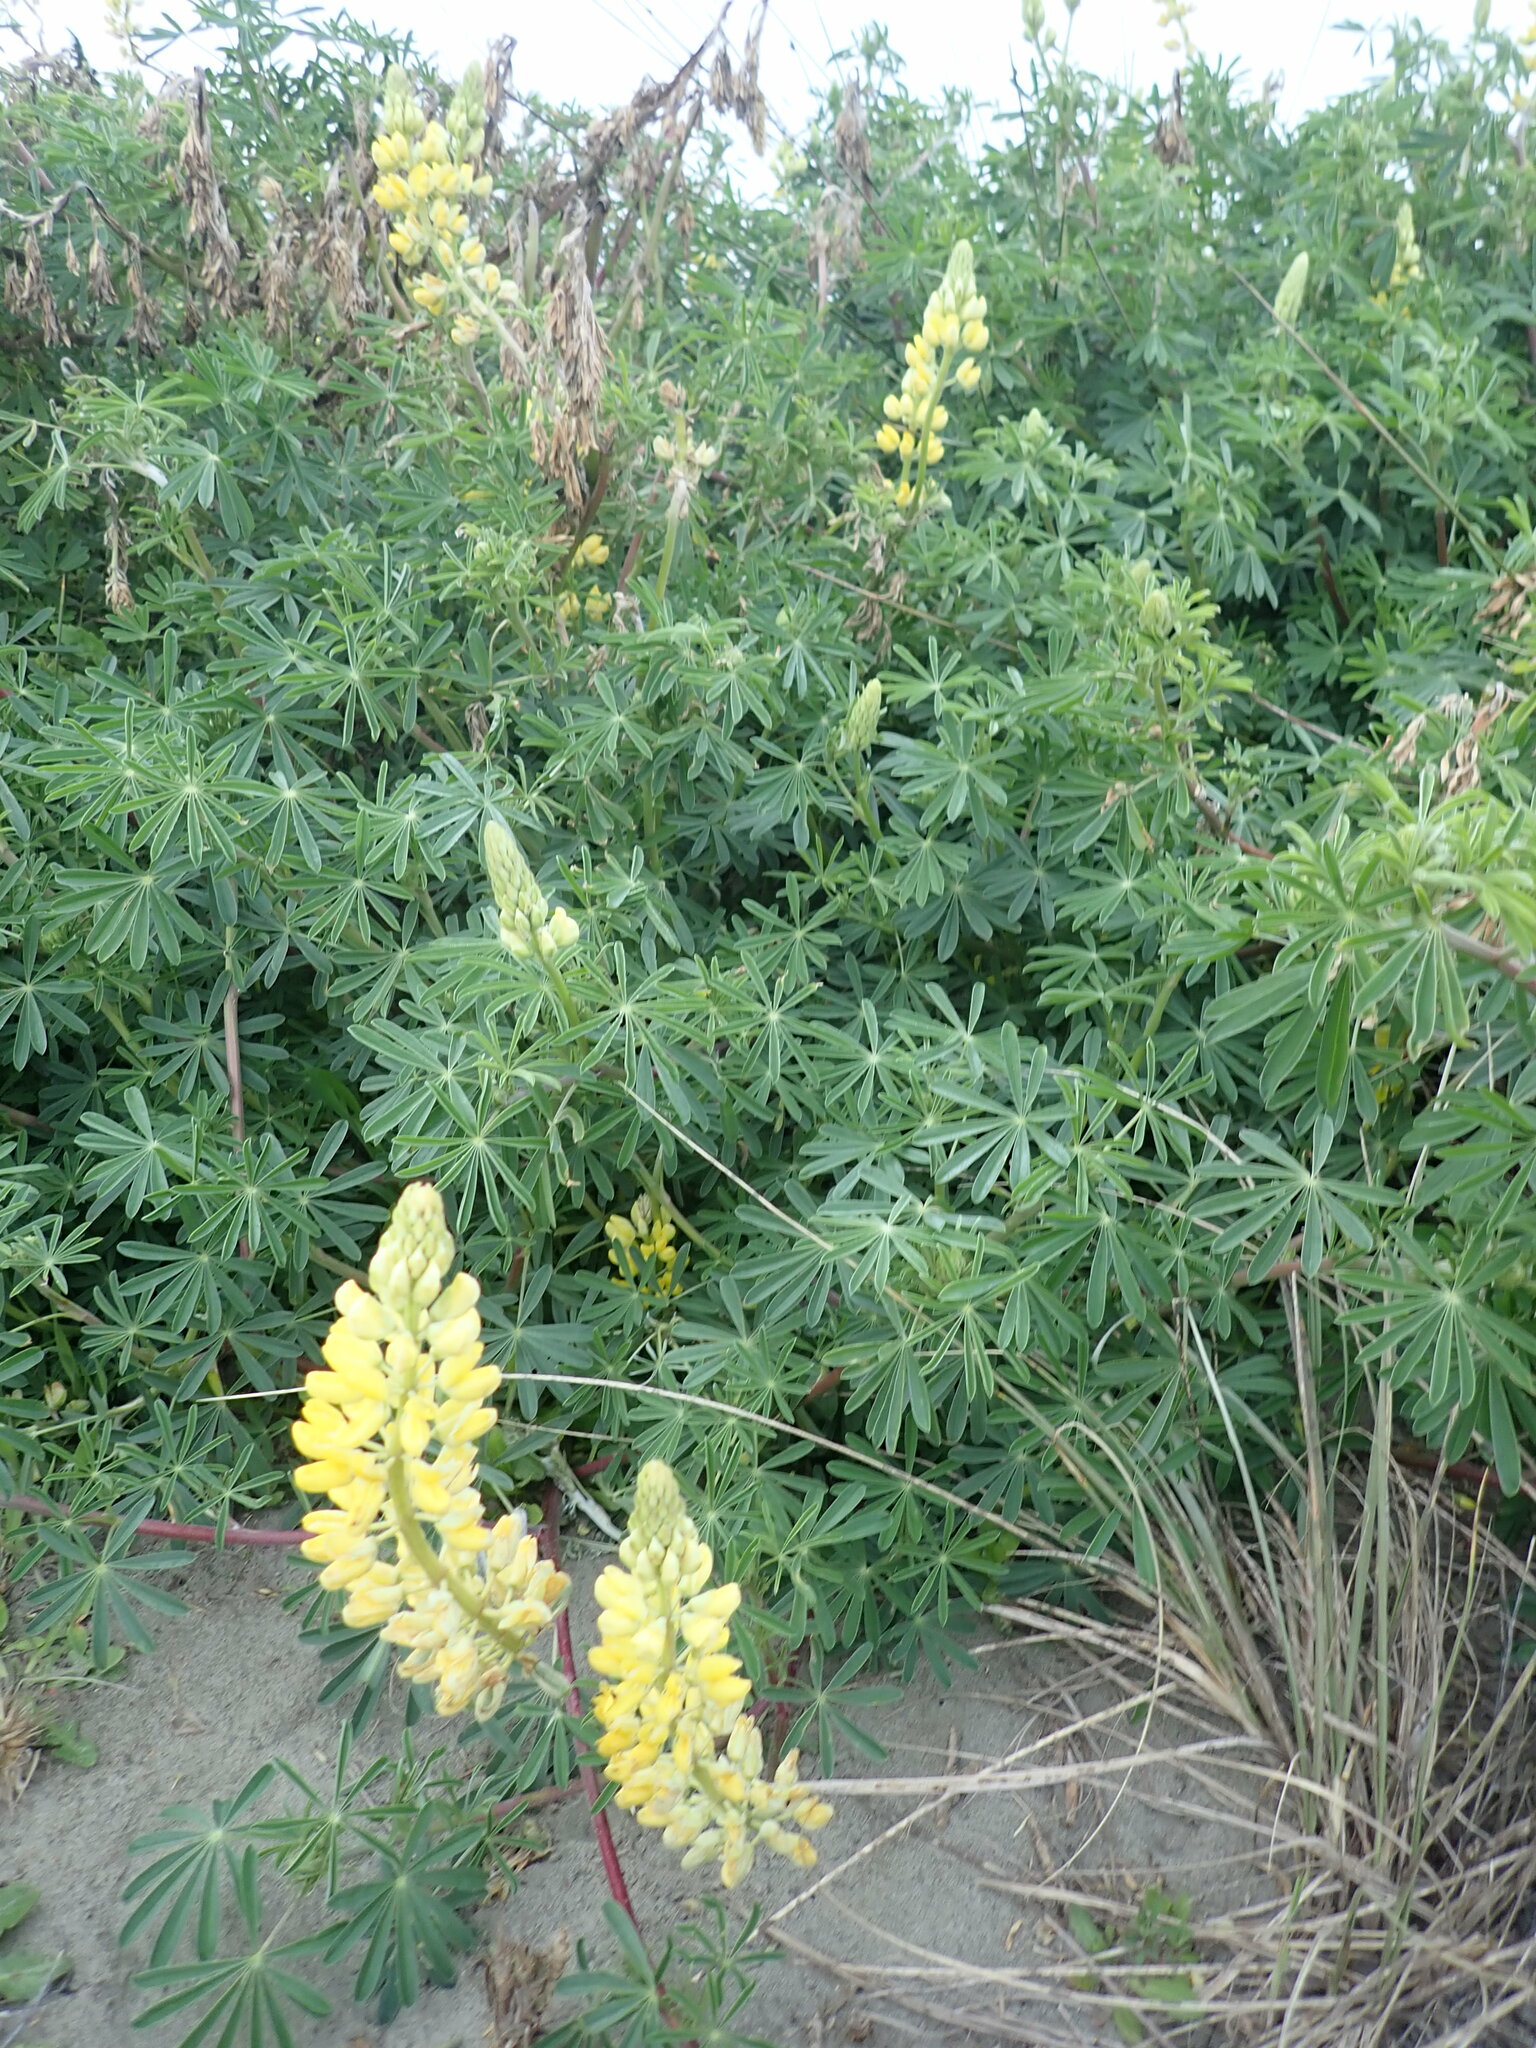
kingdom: Plantae
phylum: Tracheophyta
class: Magnoliopsida
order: Fabales
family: Fabaceae
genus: Lupinus
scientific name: Lupinus arboreus
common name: Yellow bush lupine
